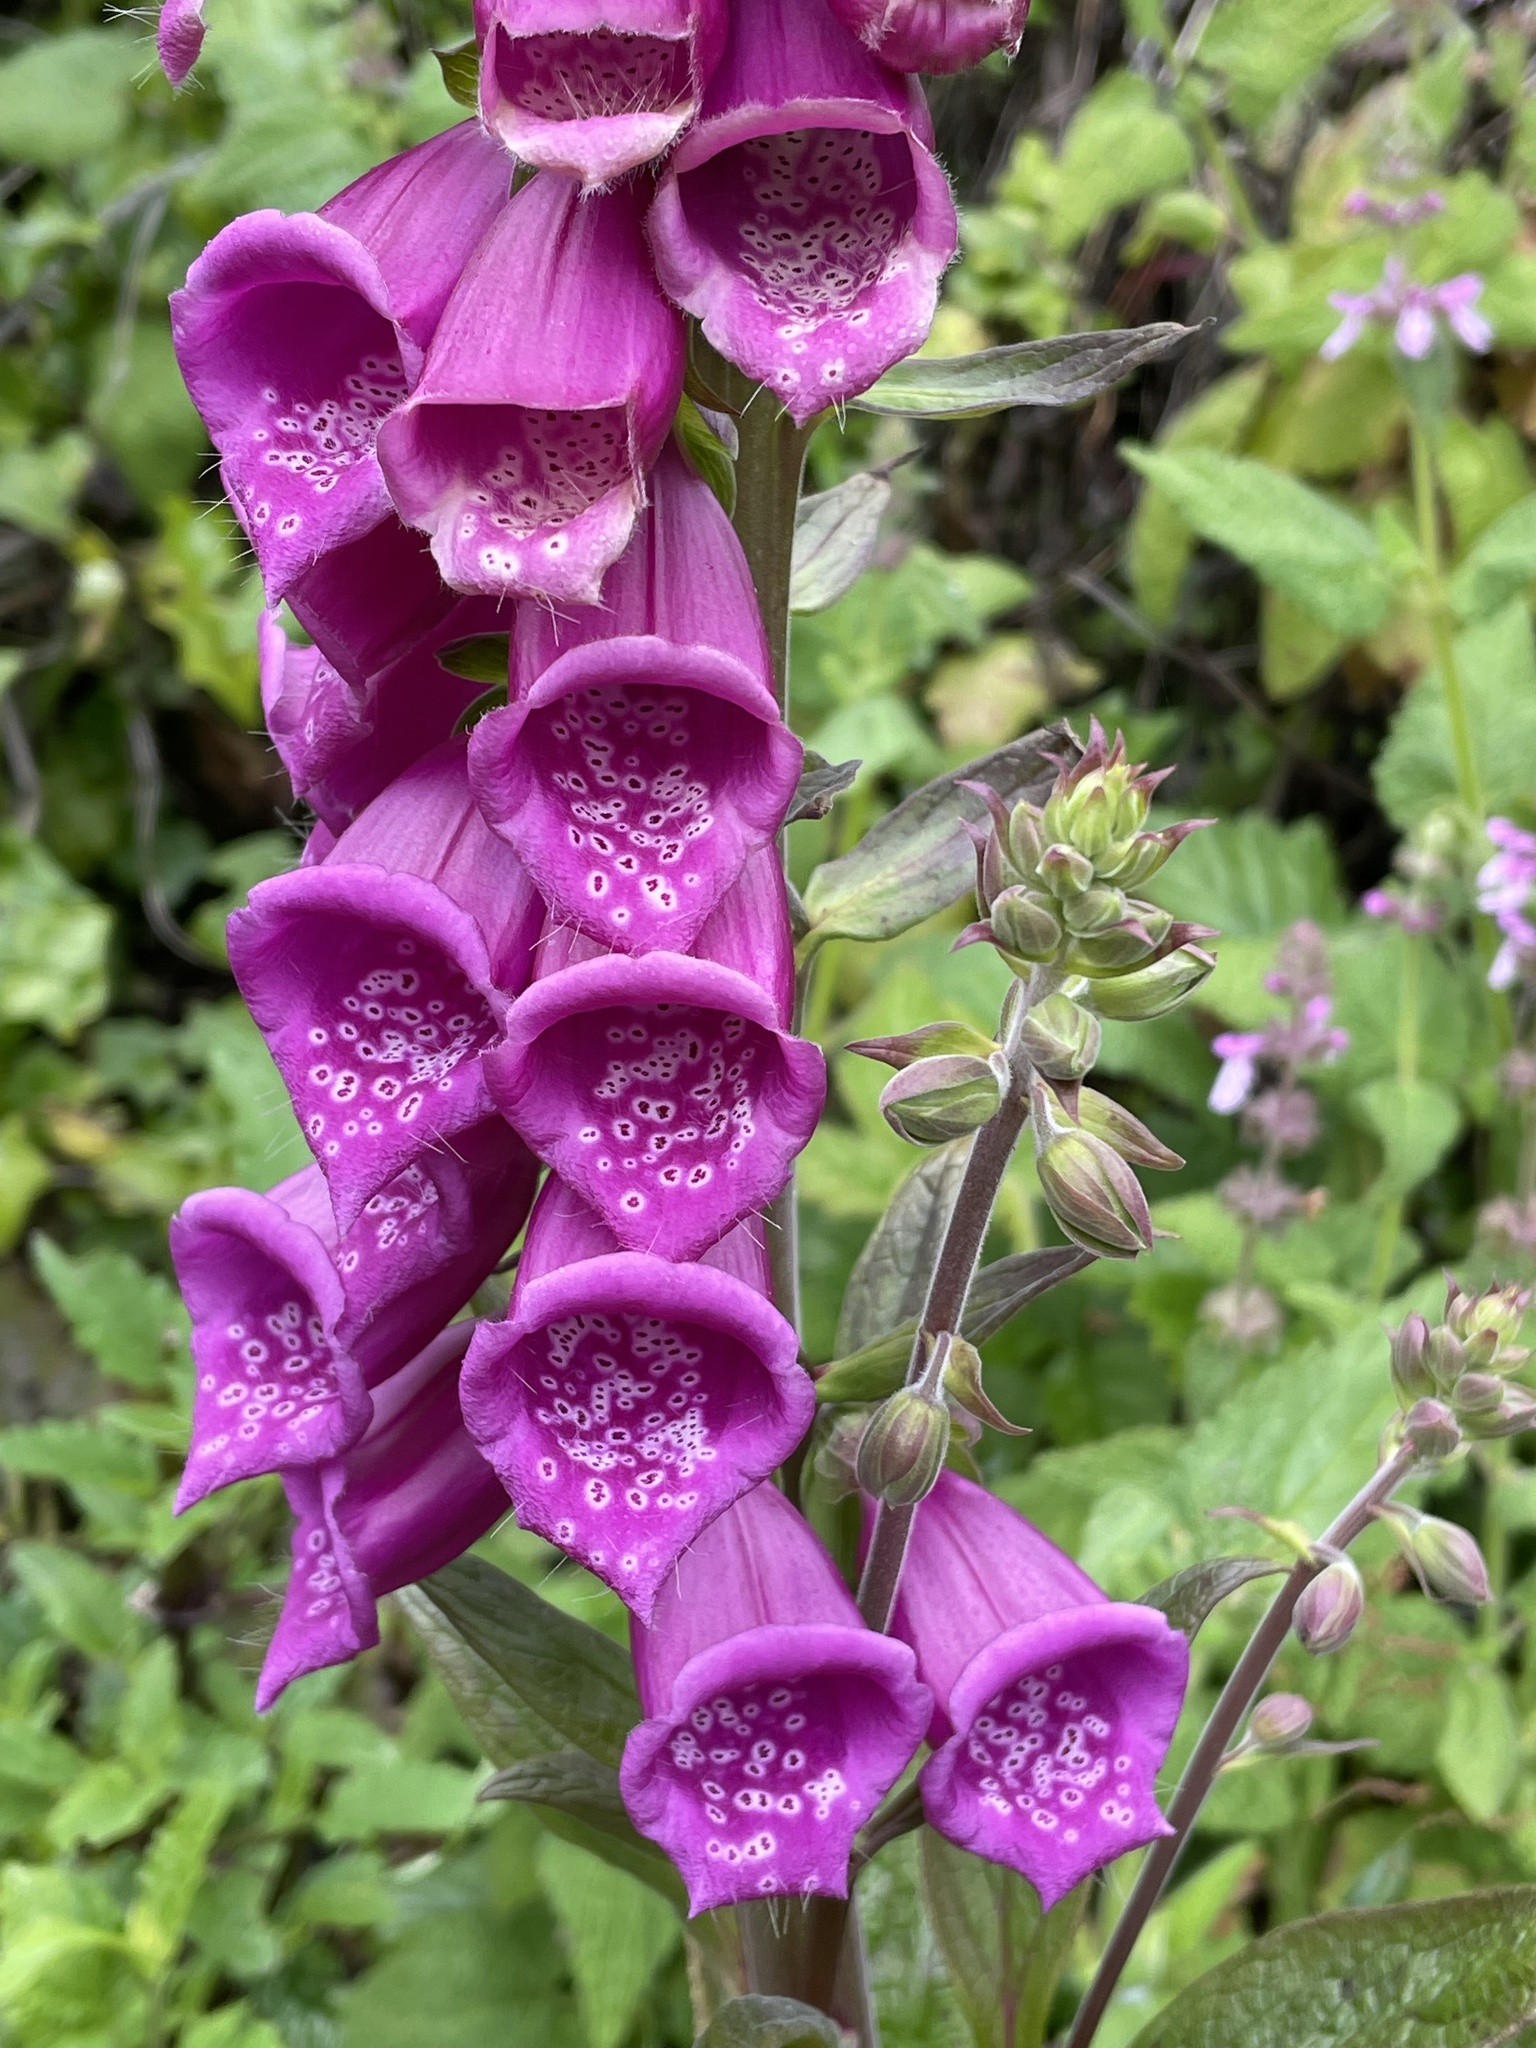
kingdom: Plantae
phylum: Tracheophyta
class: Magnoliopsida
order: Lamiales
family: Plantaginaceae
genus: Digitalis
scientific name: Digitalis purpurea
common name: Foxglove
